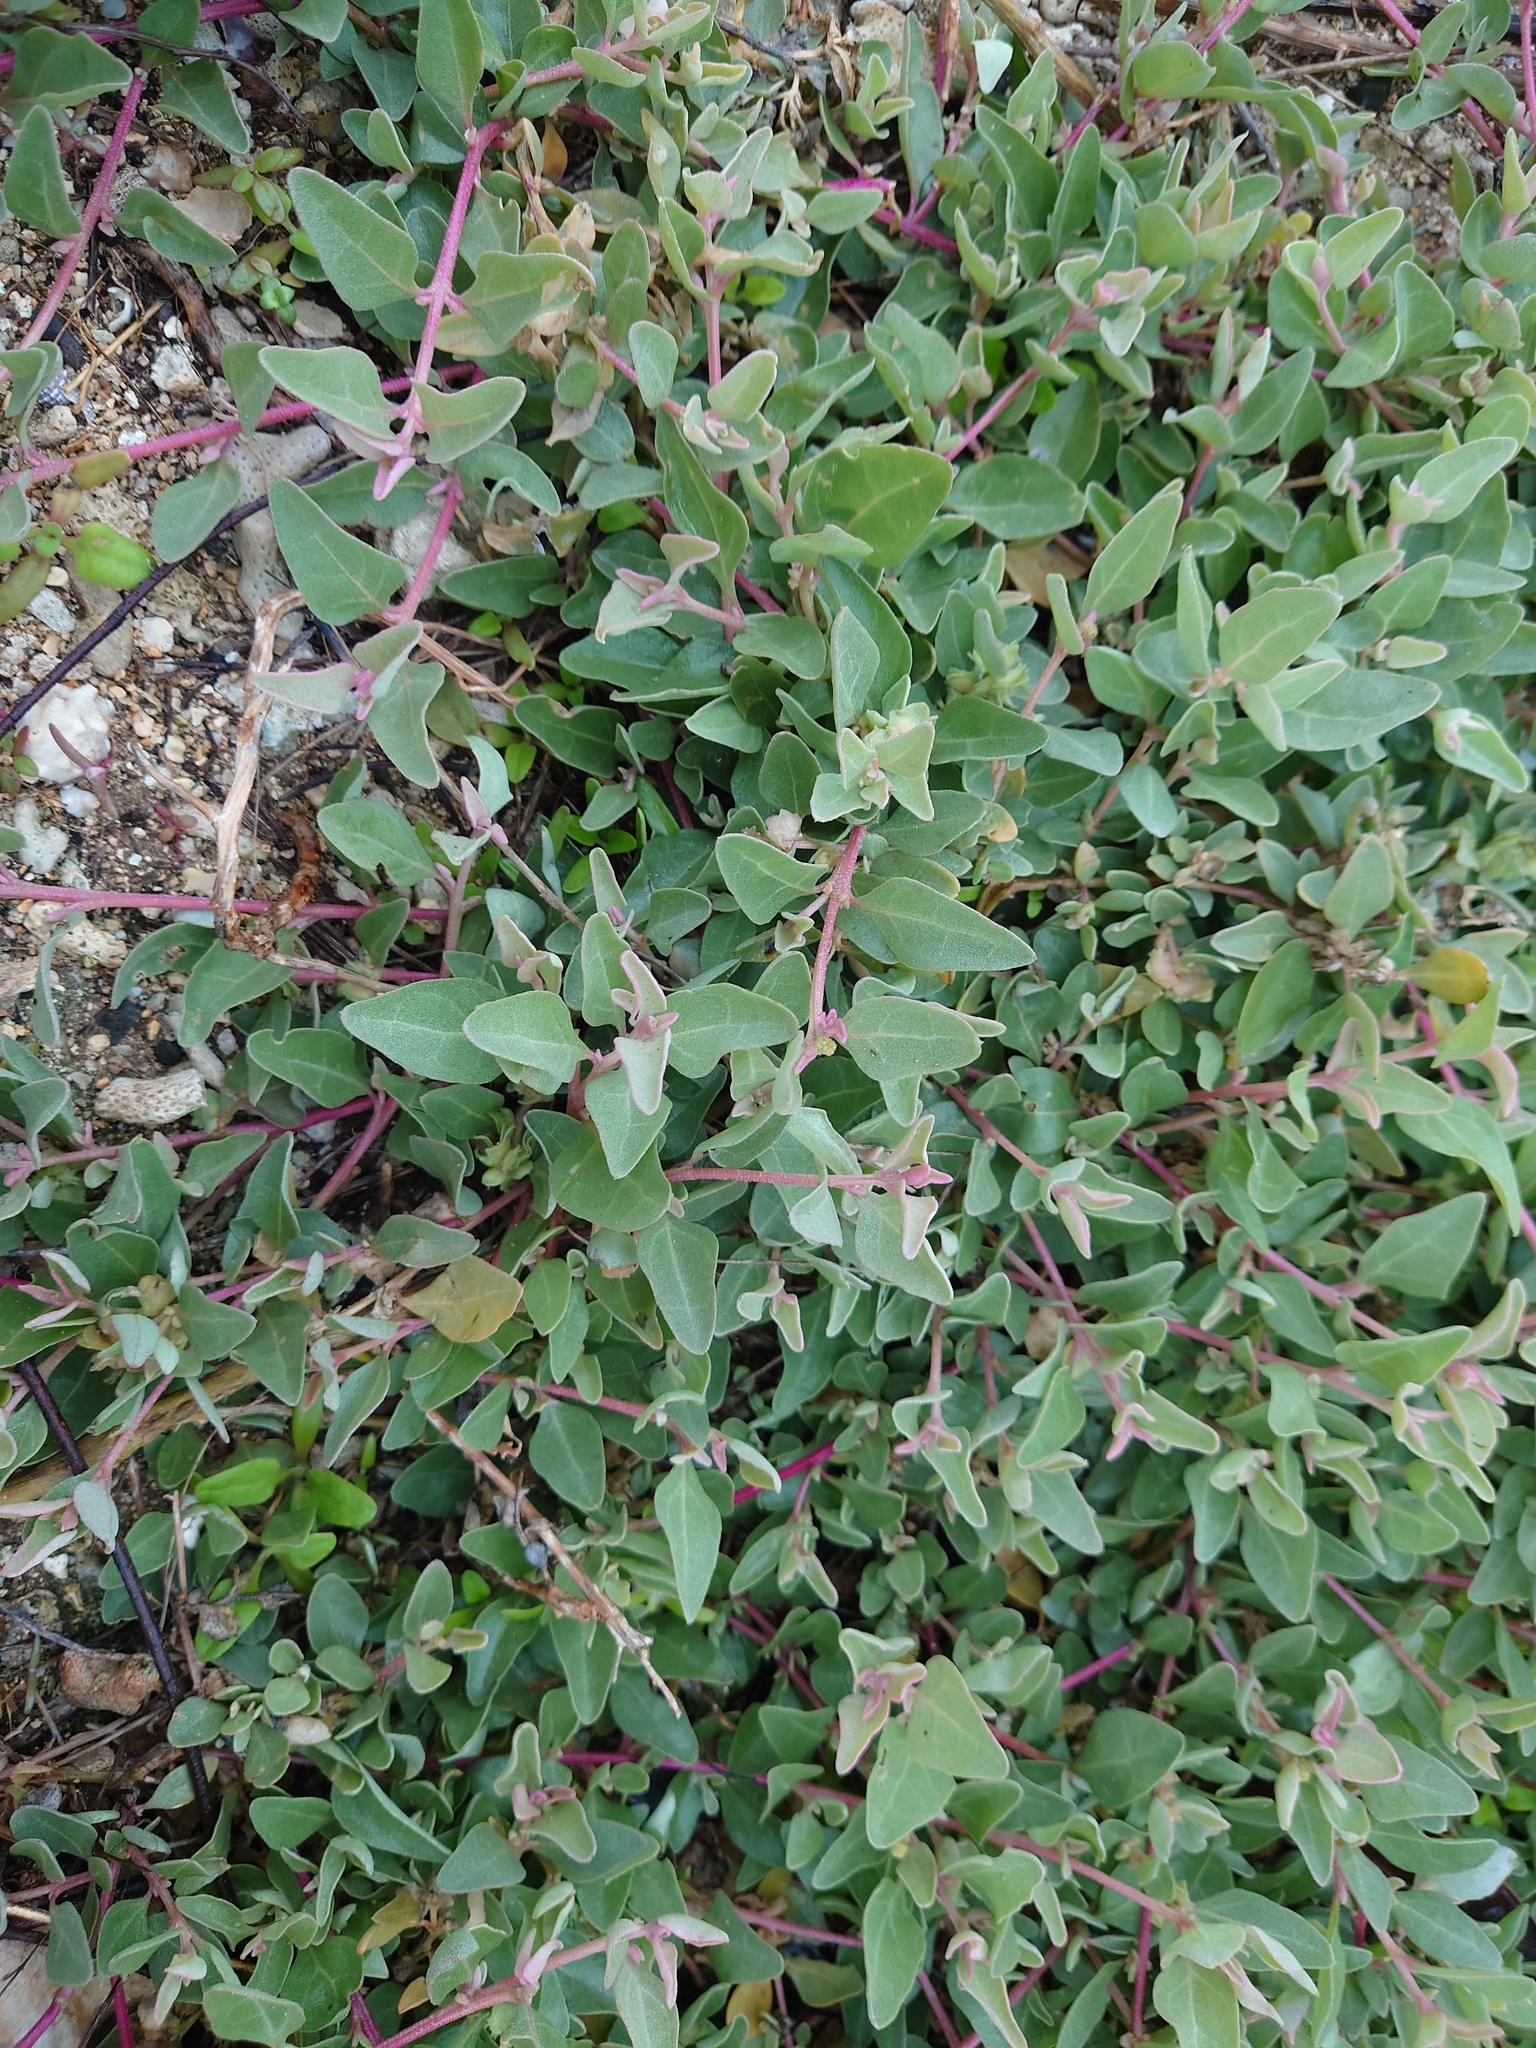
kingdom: Plantae
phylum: Tracheophyta
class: Magnoliopsida
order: Caryophyllales
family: Amaranthaceae
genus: Atriplex
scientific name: Atriplex maximowicziana
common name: Maximowicz's saltbush
